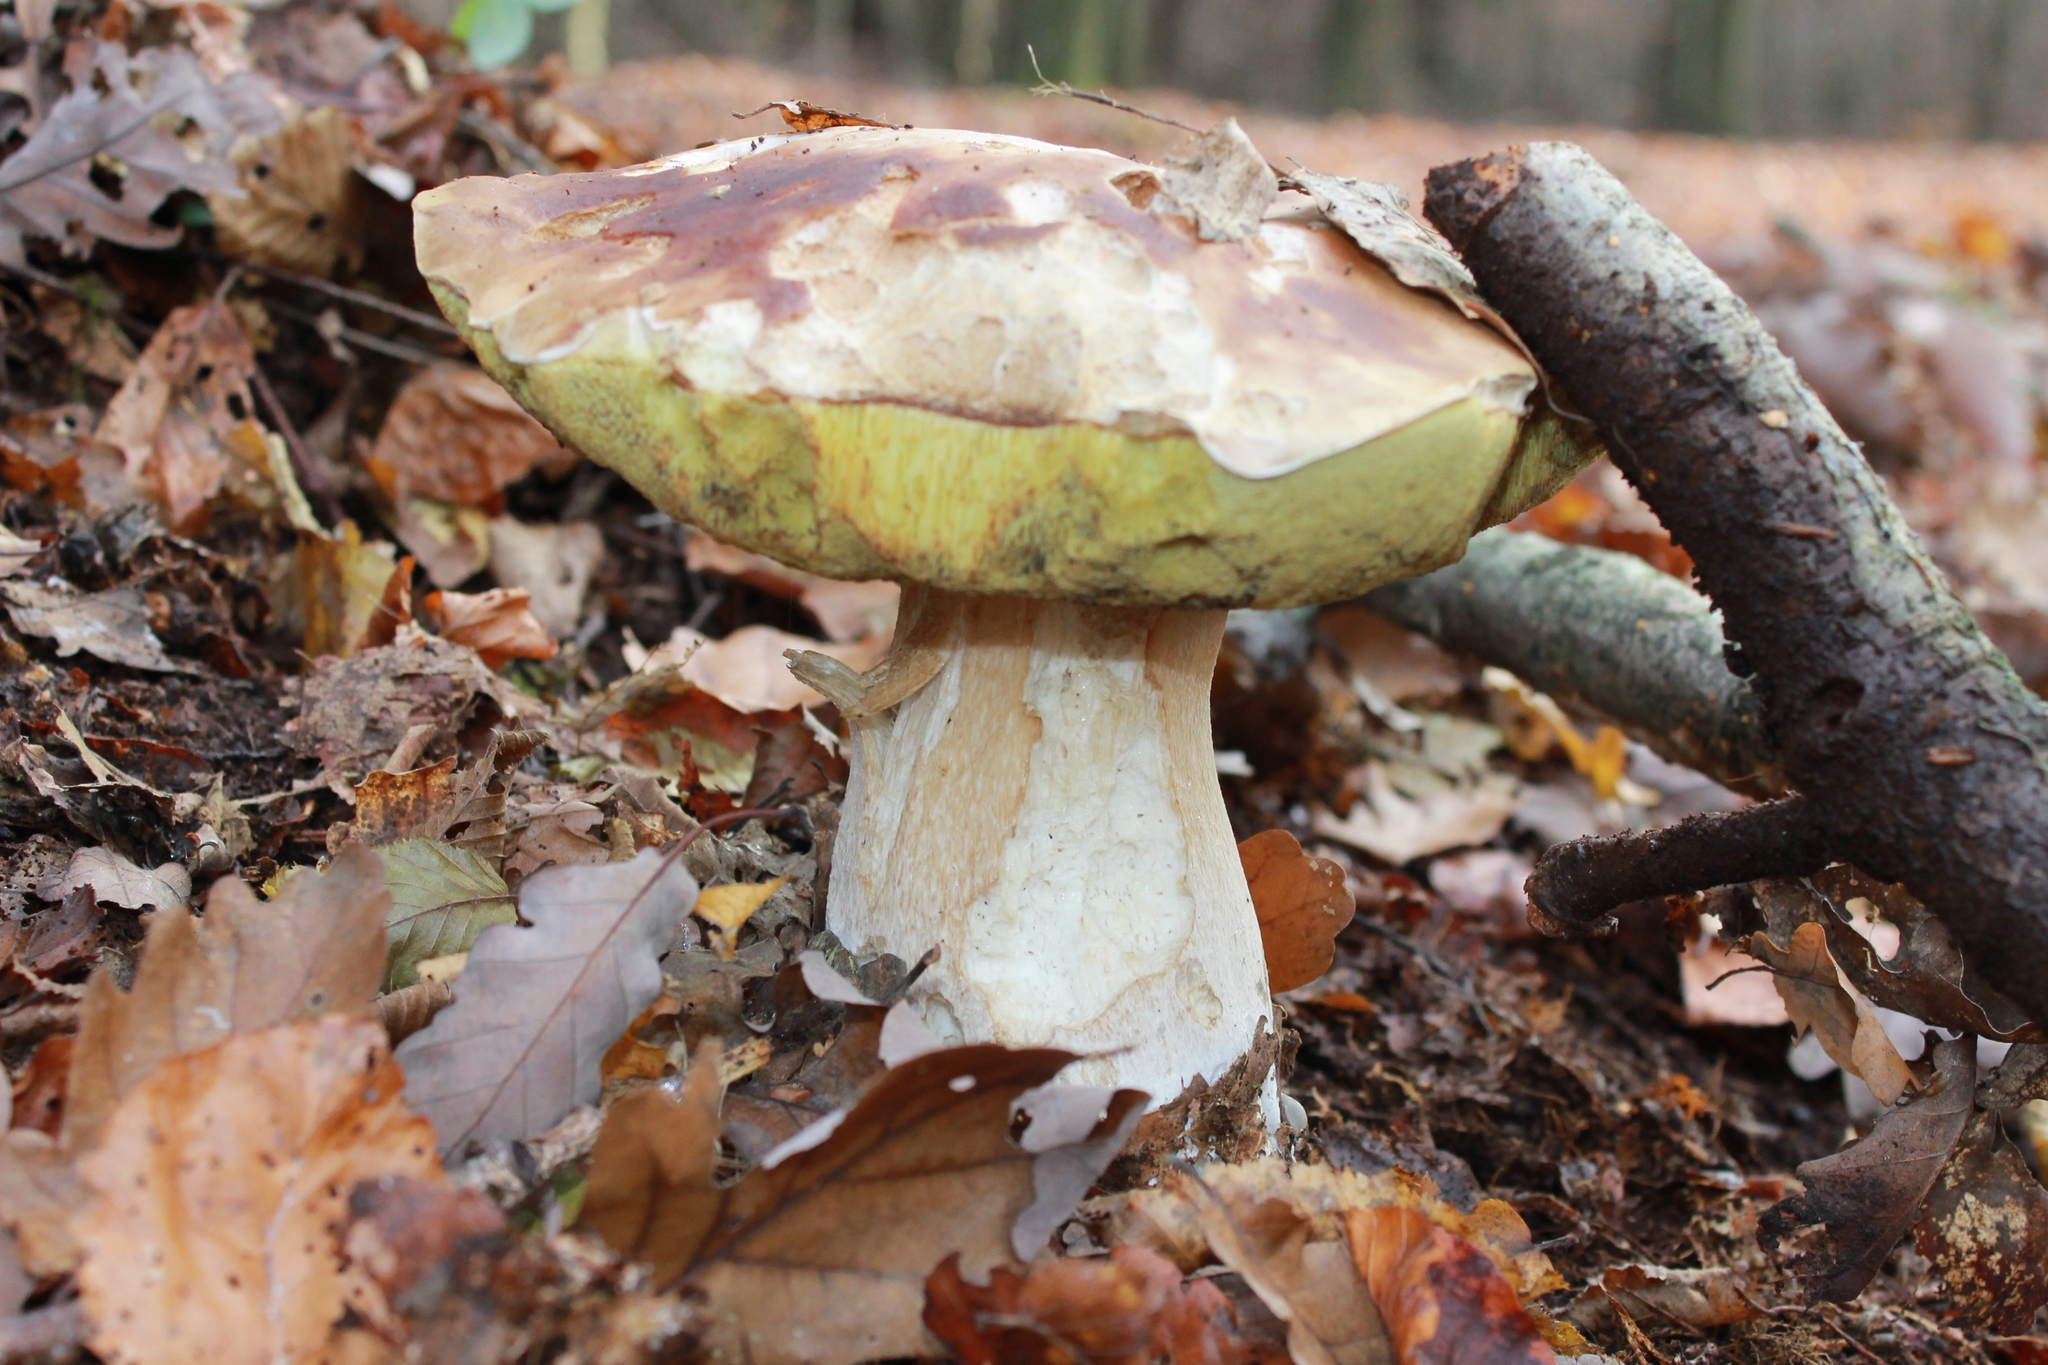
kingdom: Fungi
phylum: Basidiomycota
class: Agaricomycetes
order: Boletales
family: Boletaceae
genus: Boletus
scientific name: Boletus edulis
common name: Cep
